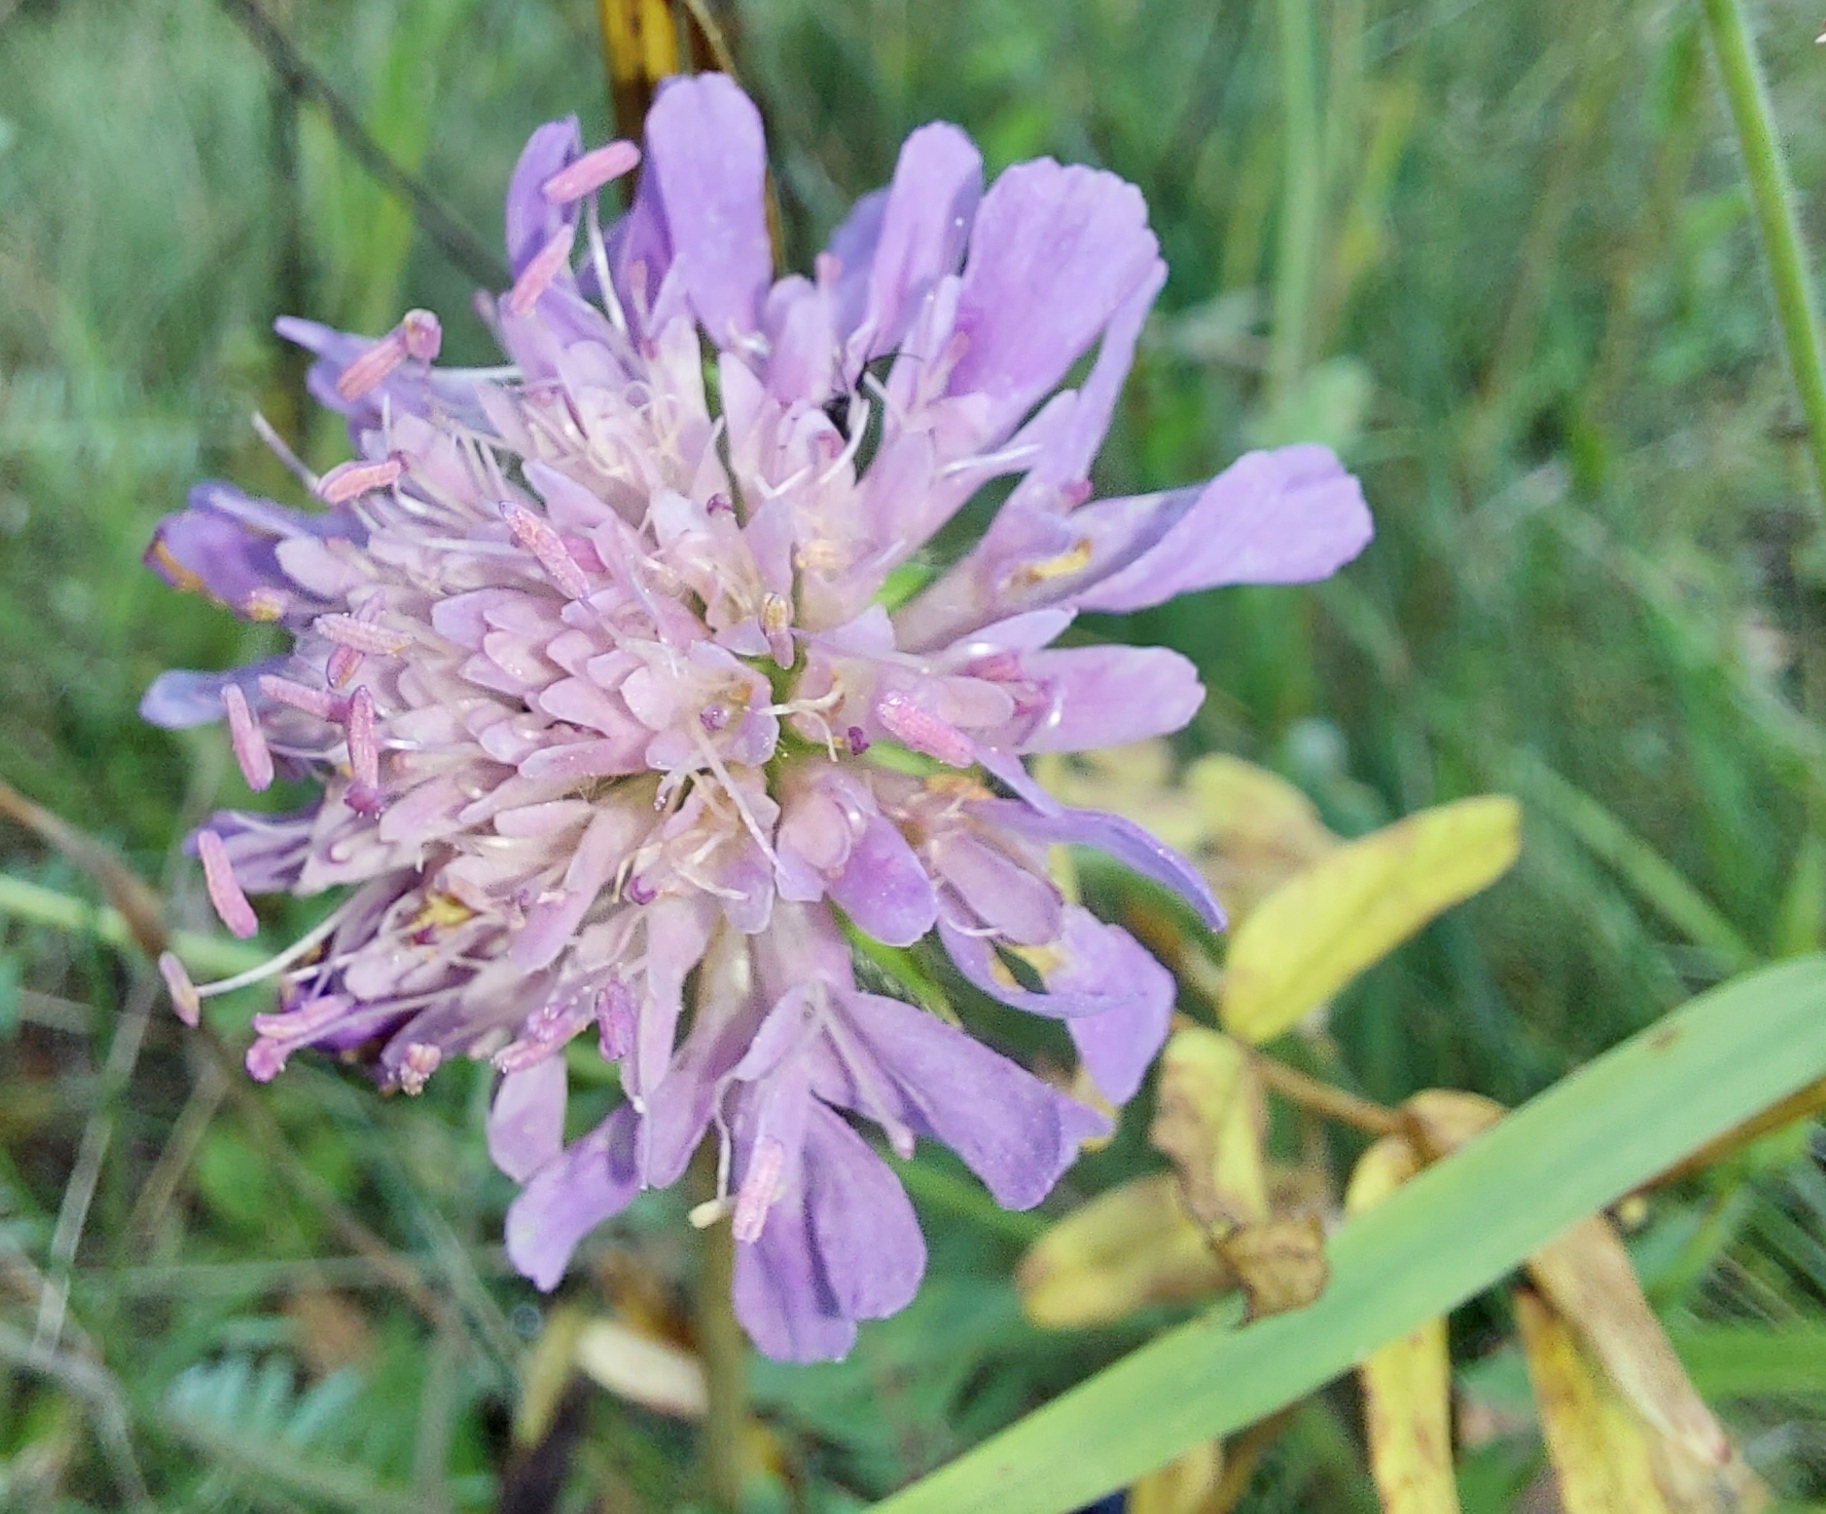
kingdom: Plantae
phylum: Tracheophyta
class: Magnoliopsida
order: Dipsacales
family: Caprifoliaceae
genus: Knautia
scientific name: Knautia arvensis
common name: Field scabiosa
